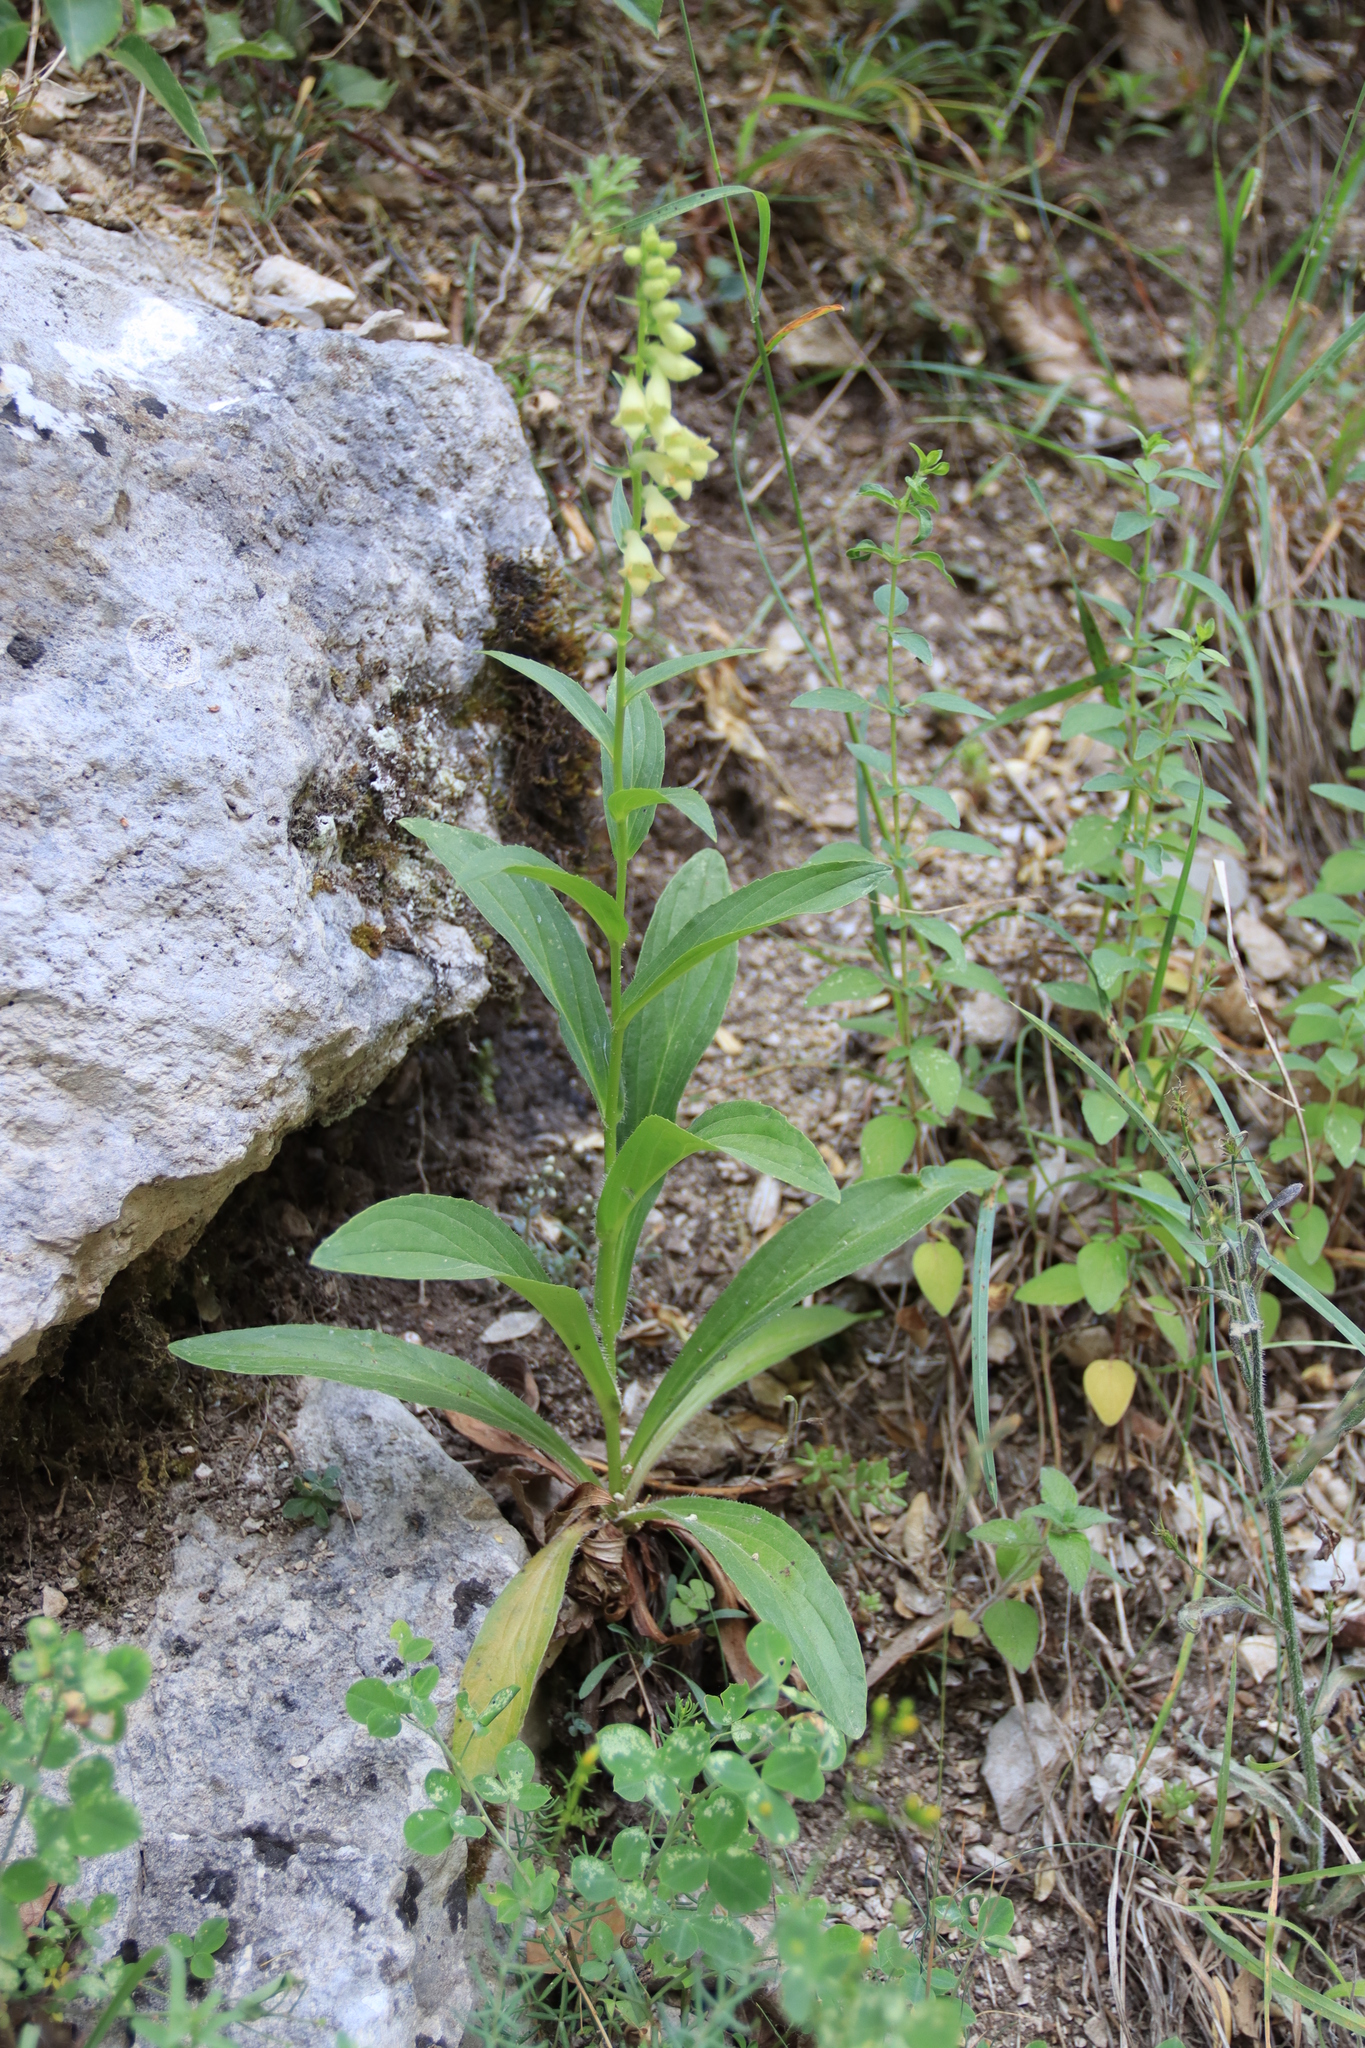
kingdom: Plantae
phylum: Tracheophyta
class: Magnoliopsida
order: Lamiales
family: Plantaginaceae
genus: Digitalis
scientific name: Digitalis lutea
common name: Straw foxglove
